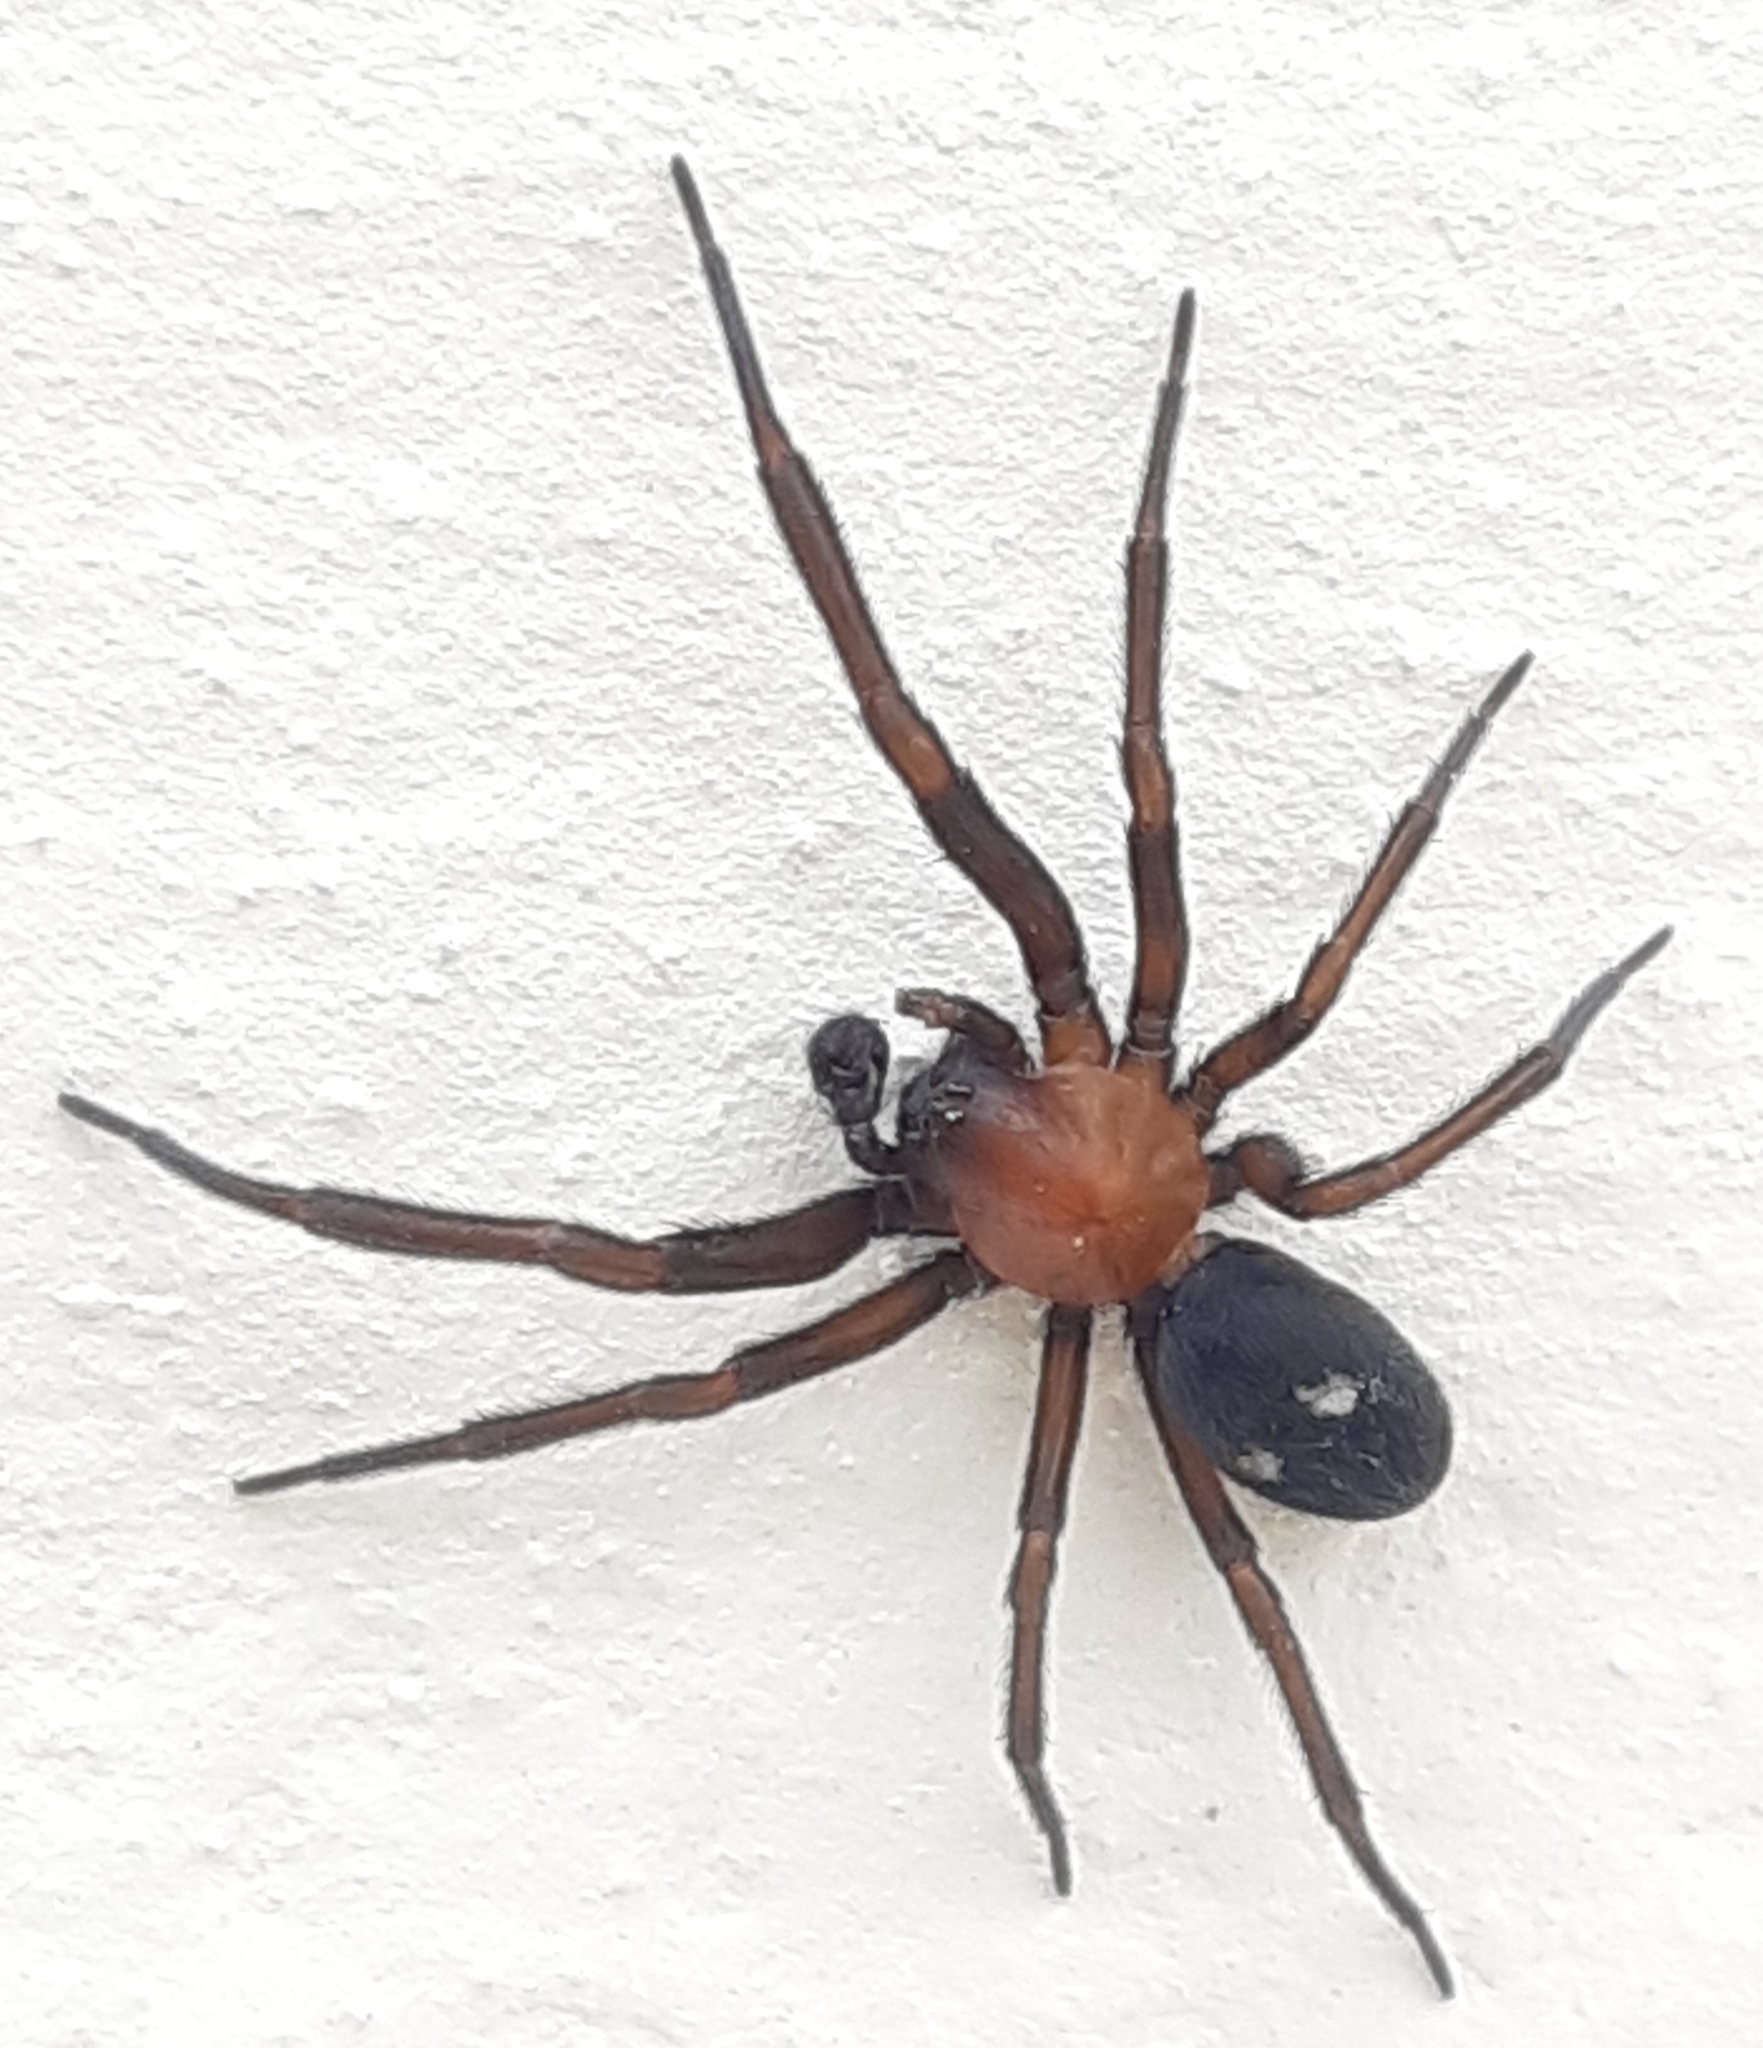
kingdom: Animalia
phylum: Arthropoda
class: Arachnida
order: Araneae
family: Titanoecidae
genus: Titanoeca
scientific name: Titanoeca schineri
